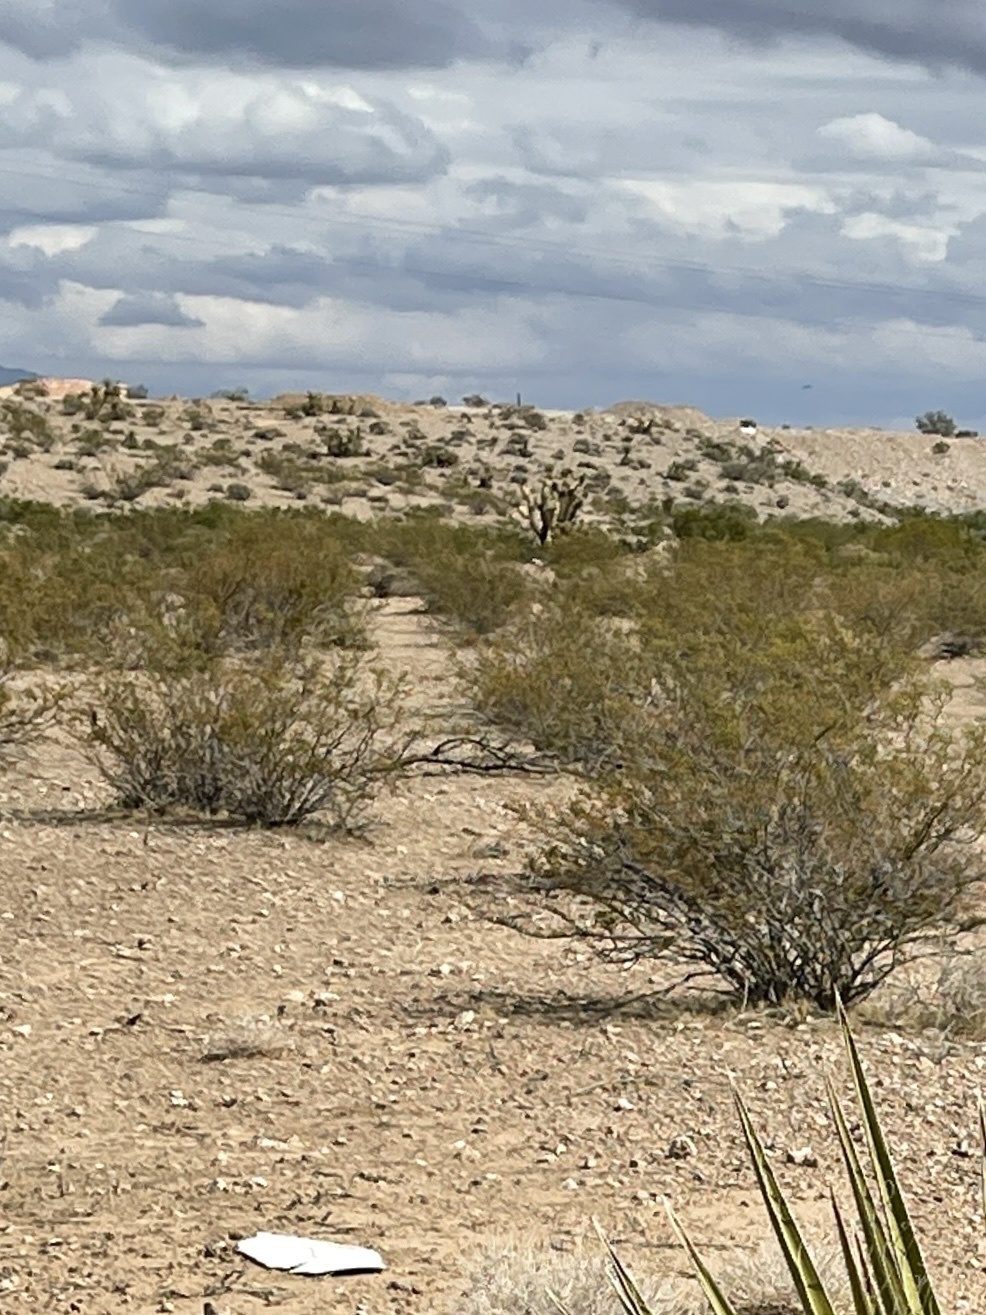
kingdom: Plantae
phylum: Tracheophyta
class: Magnoliopsida
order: Zygophyllales
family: Zygophyllaceae
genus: Larrea
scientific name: Larrea tridentata
